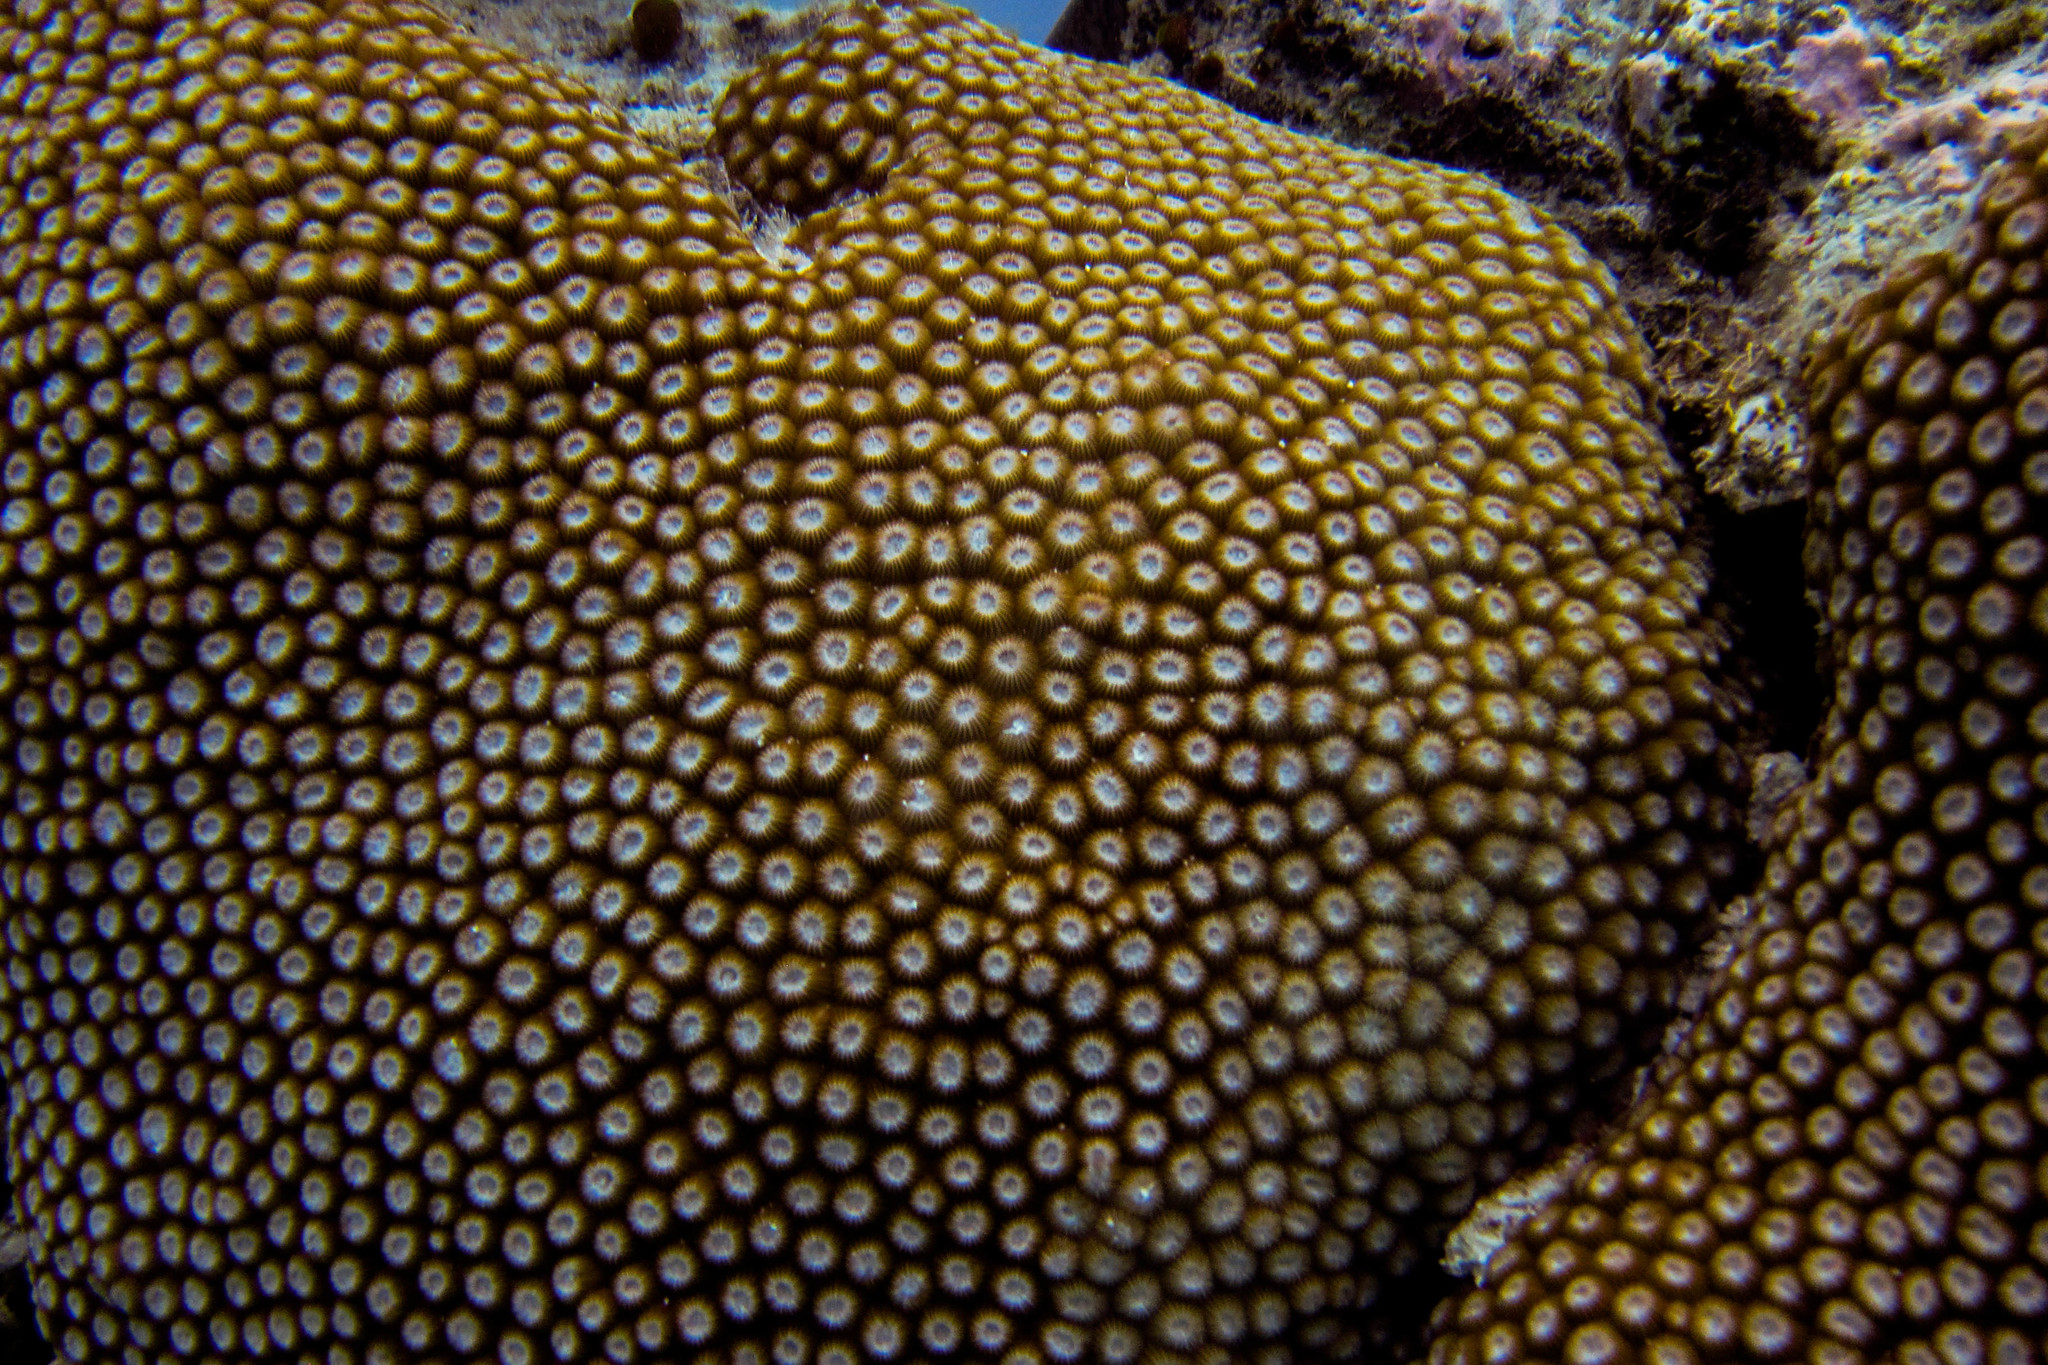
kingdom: Animalia
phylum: Cnidaria
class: Anthozoa
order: Scleractinia
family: Diploastraeidae
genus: Diploastrea
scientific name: Diploastrea heliopora
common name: Double-star coral
